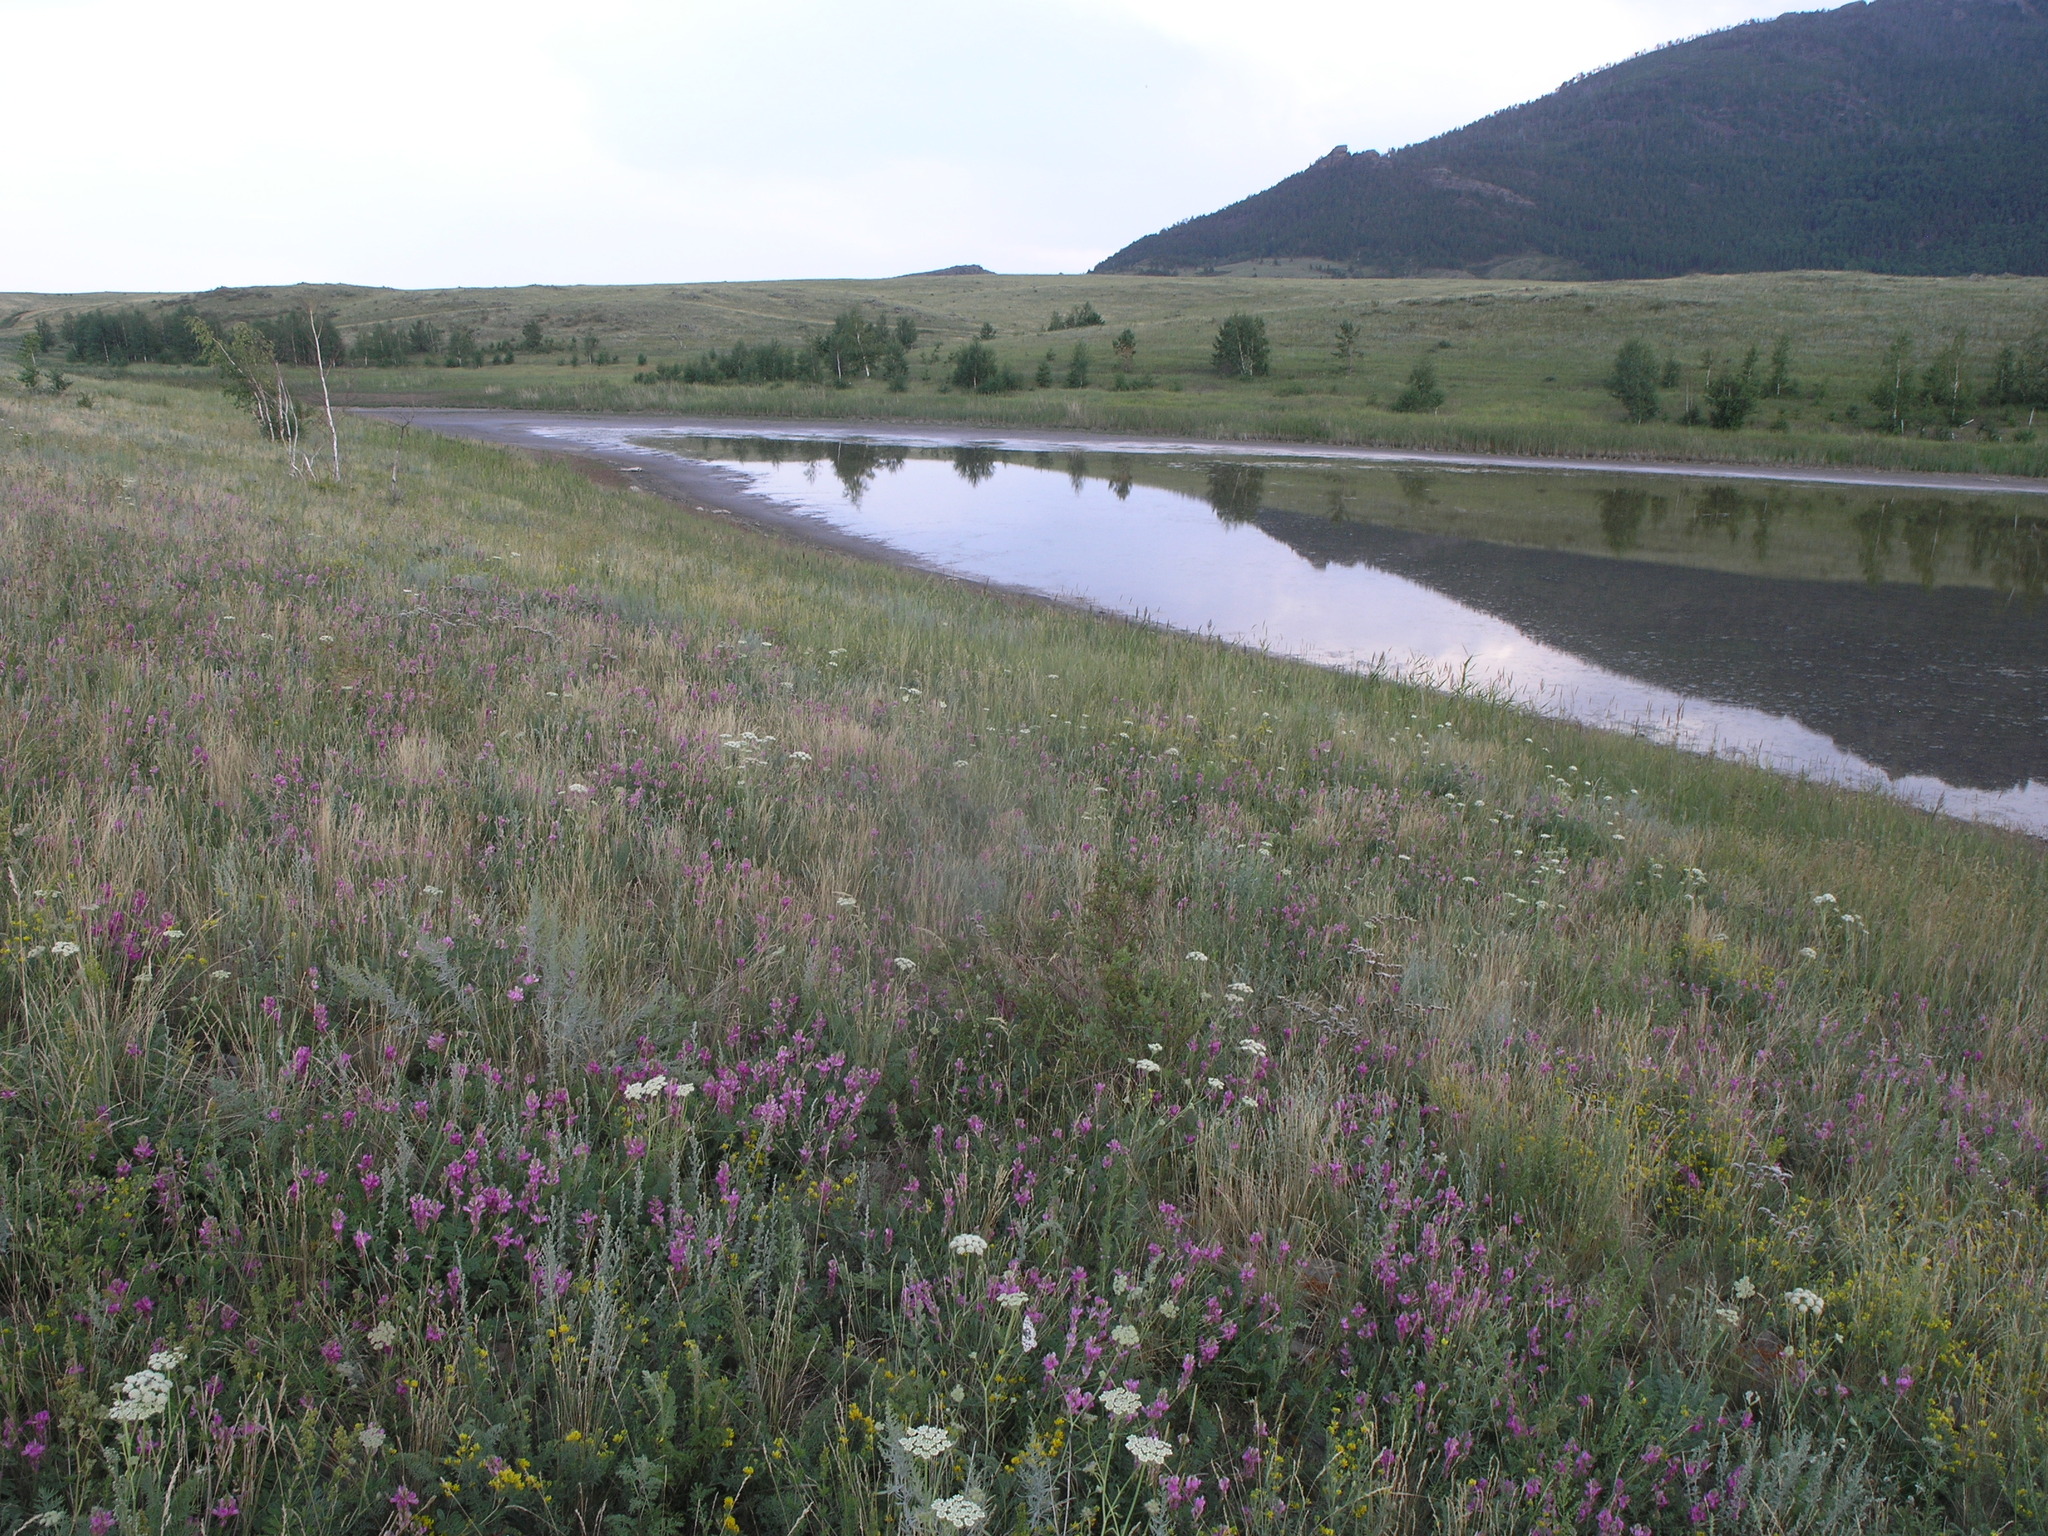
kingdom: Plantae
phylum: Tracheophyta
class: Magnoliopsida
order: Fabales
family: Fabaceae
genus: Hedysarum
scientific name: Hedysarum gmelinii
